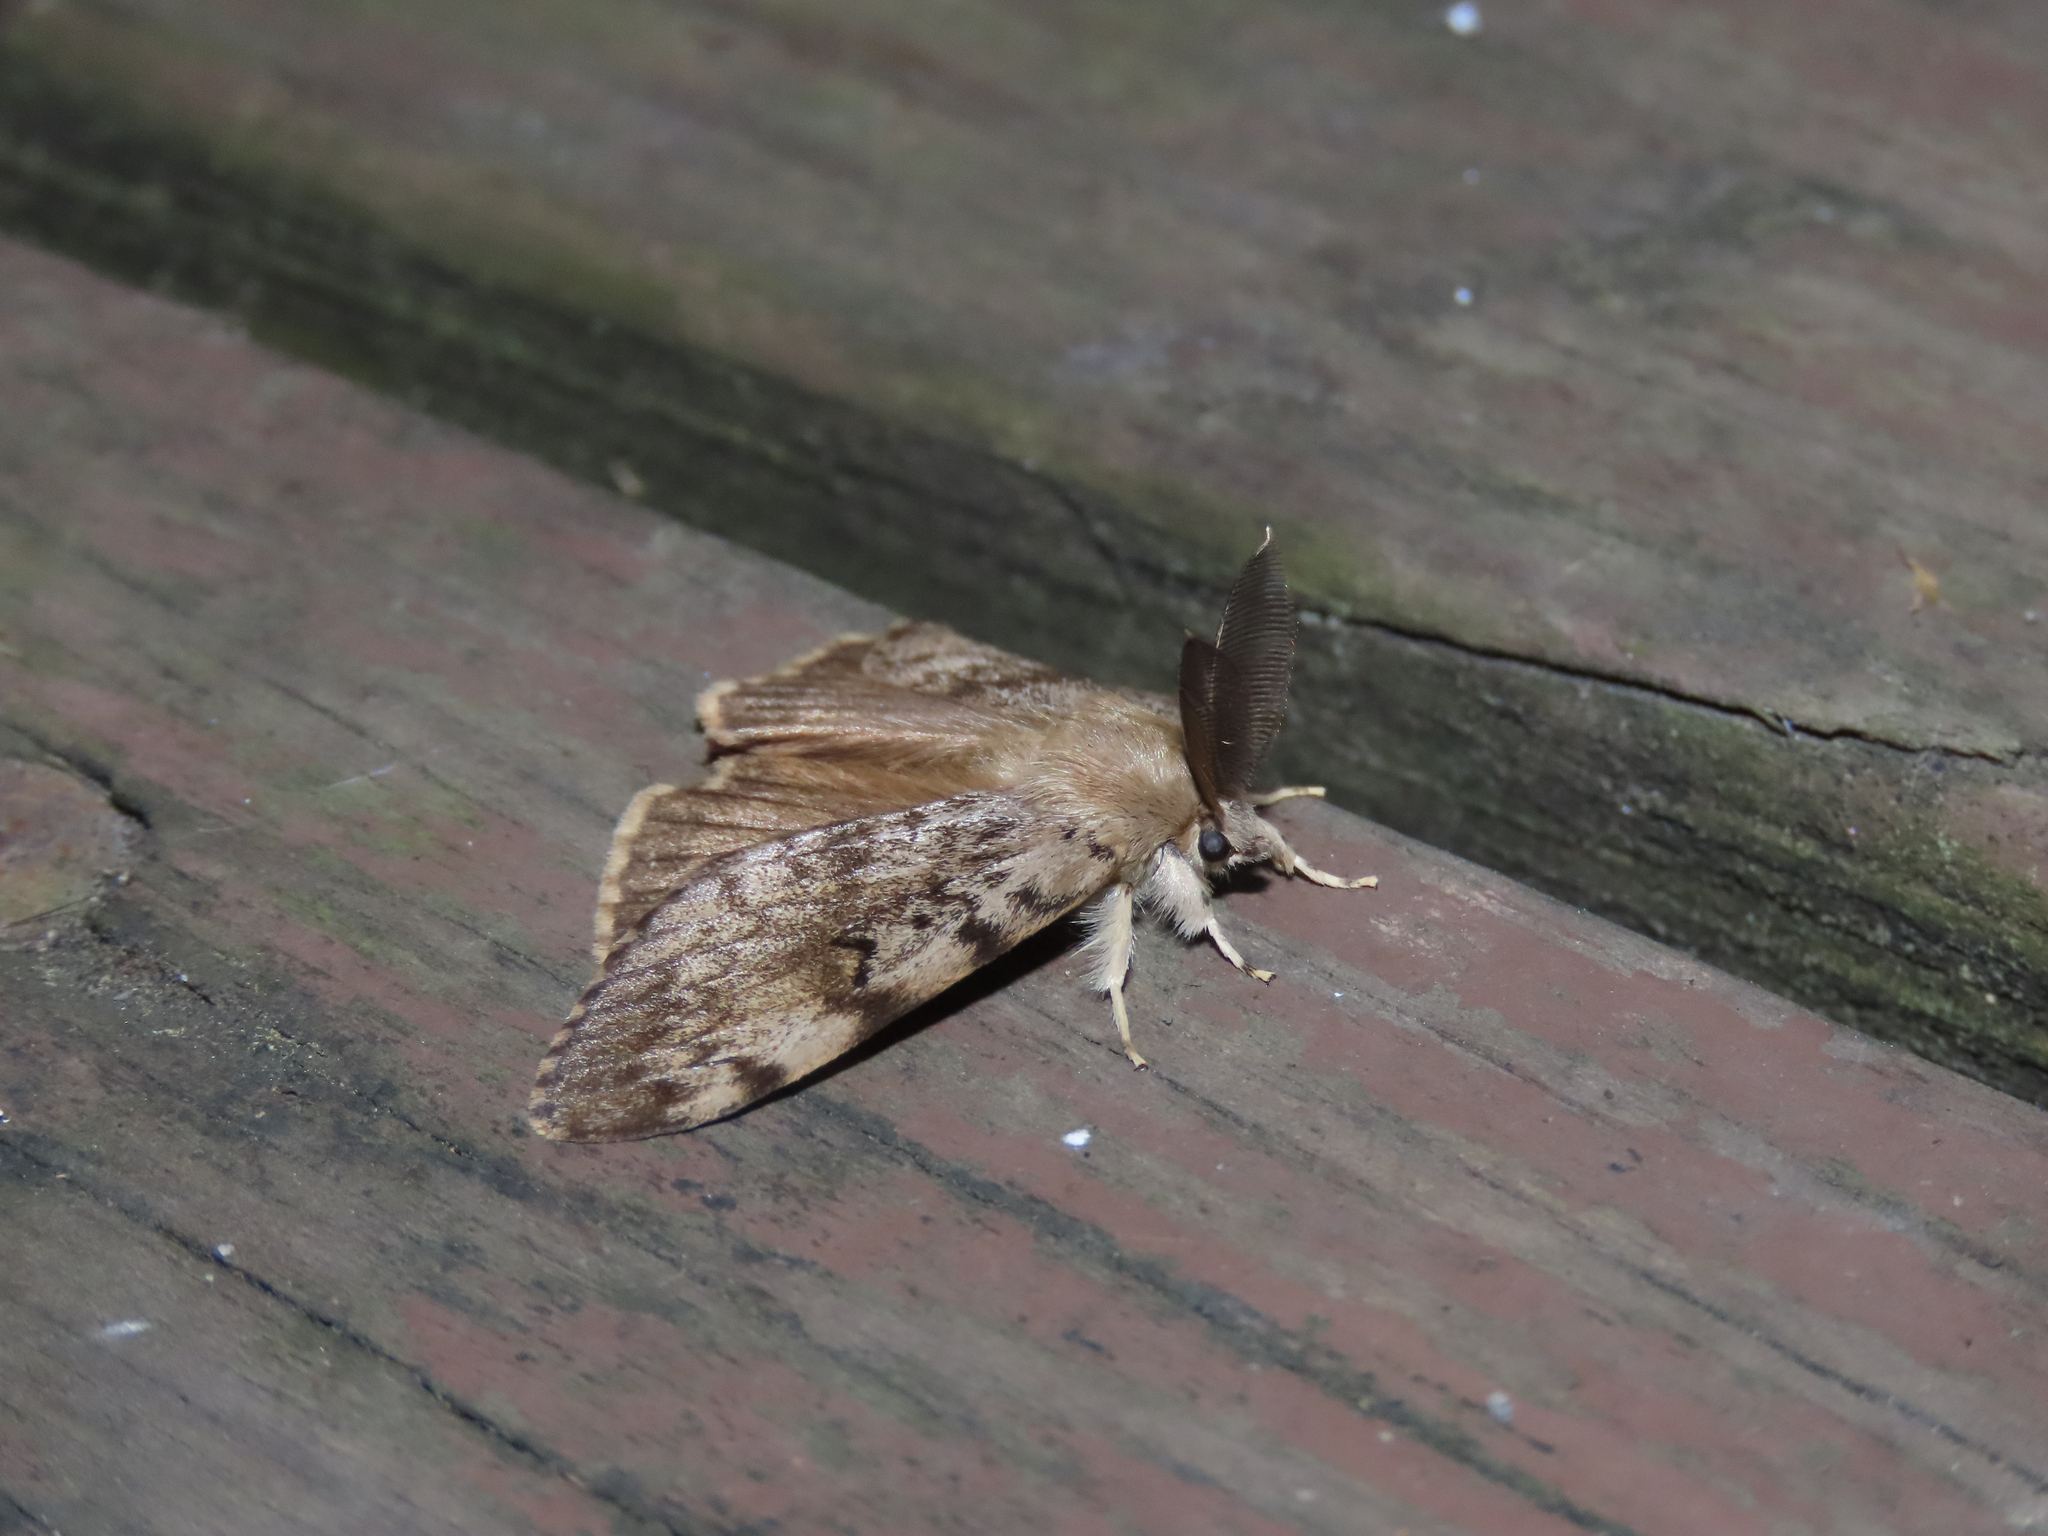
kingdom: Animalia
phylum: Arthropoda
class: Insecta
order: Lepidoptera
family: Erebidae
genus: Lymantria
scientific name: Lymantria dispar
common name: Gypsy moth
